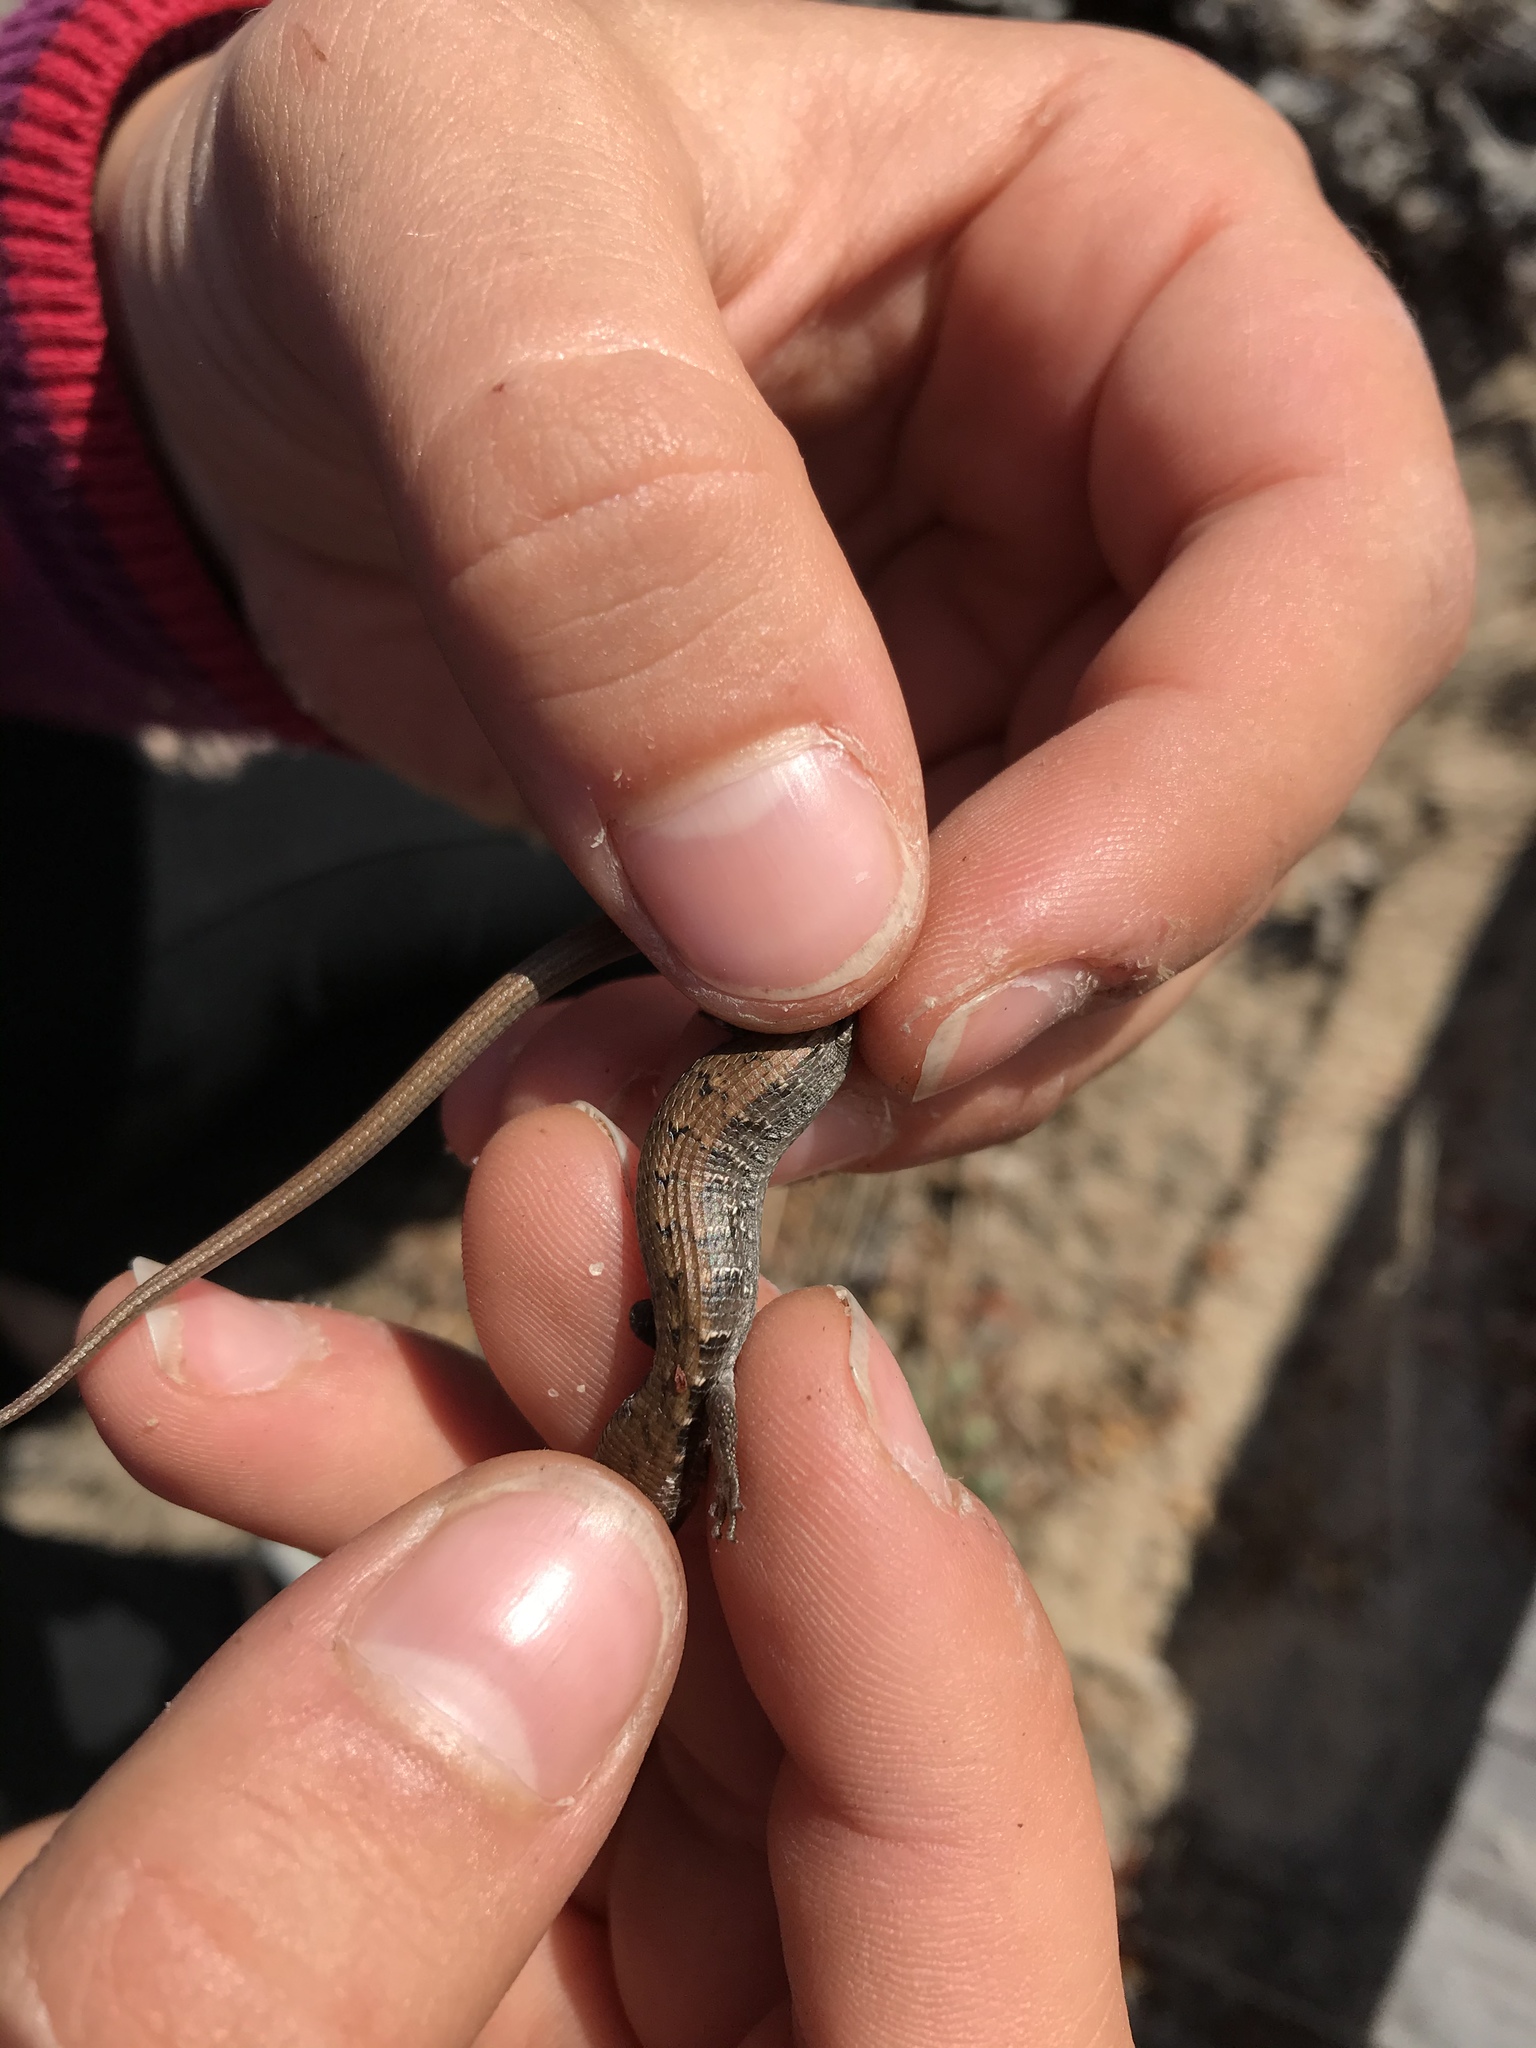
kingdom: Animalia
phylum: Chordata
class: Squamata
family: Anguidae
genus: Elgaria
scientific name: Elgaria multicarinata
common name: Southern alligator lizard
